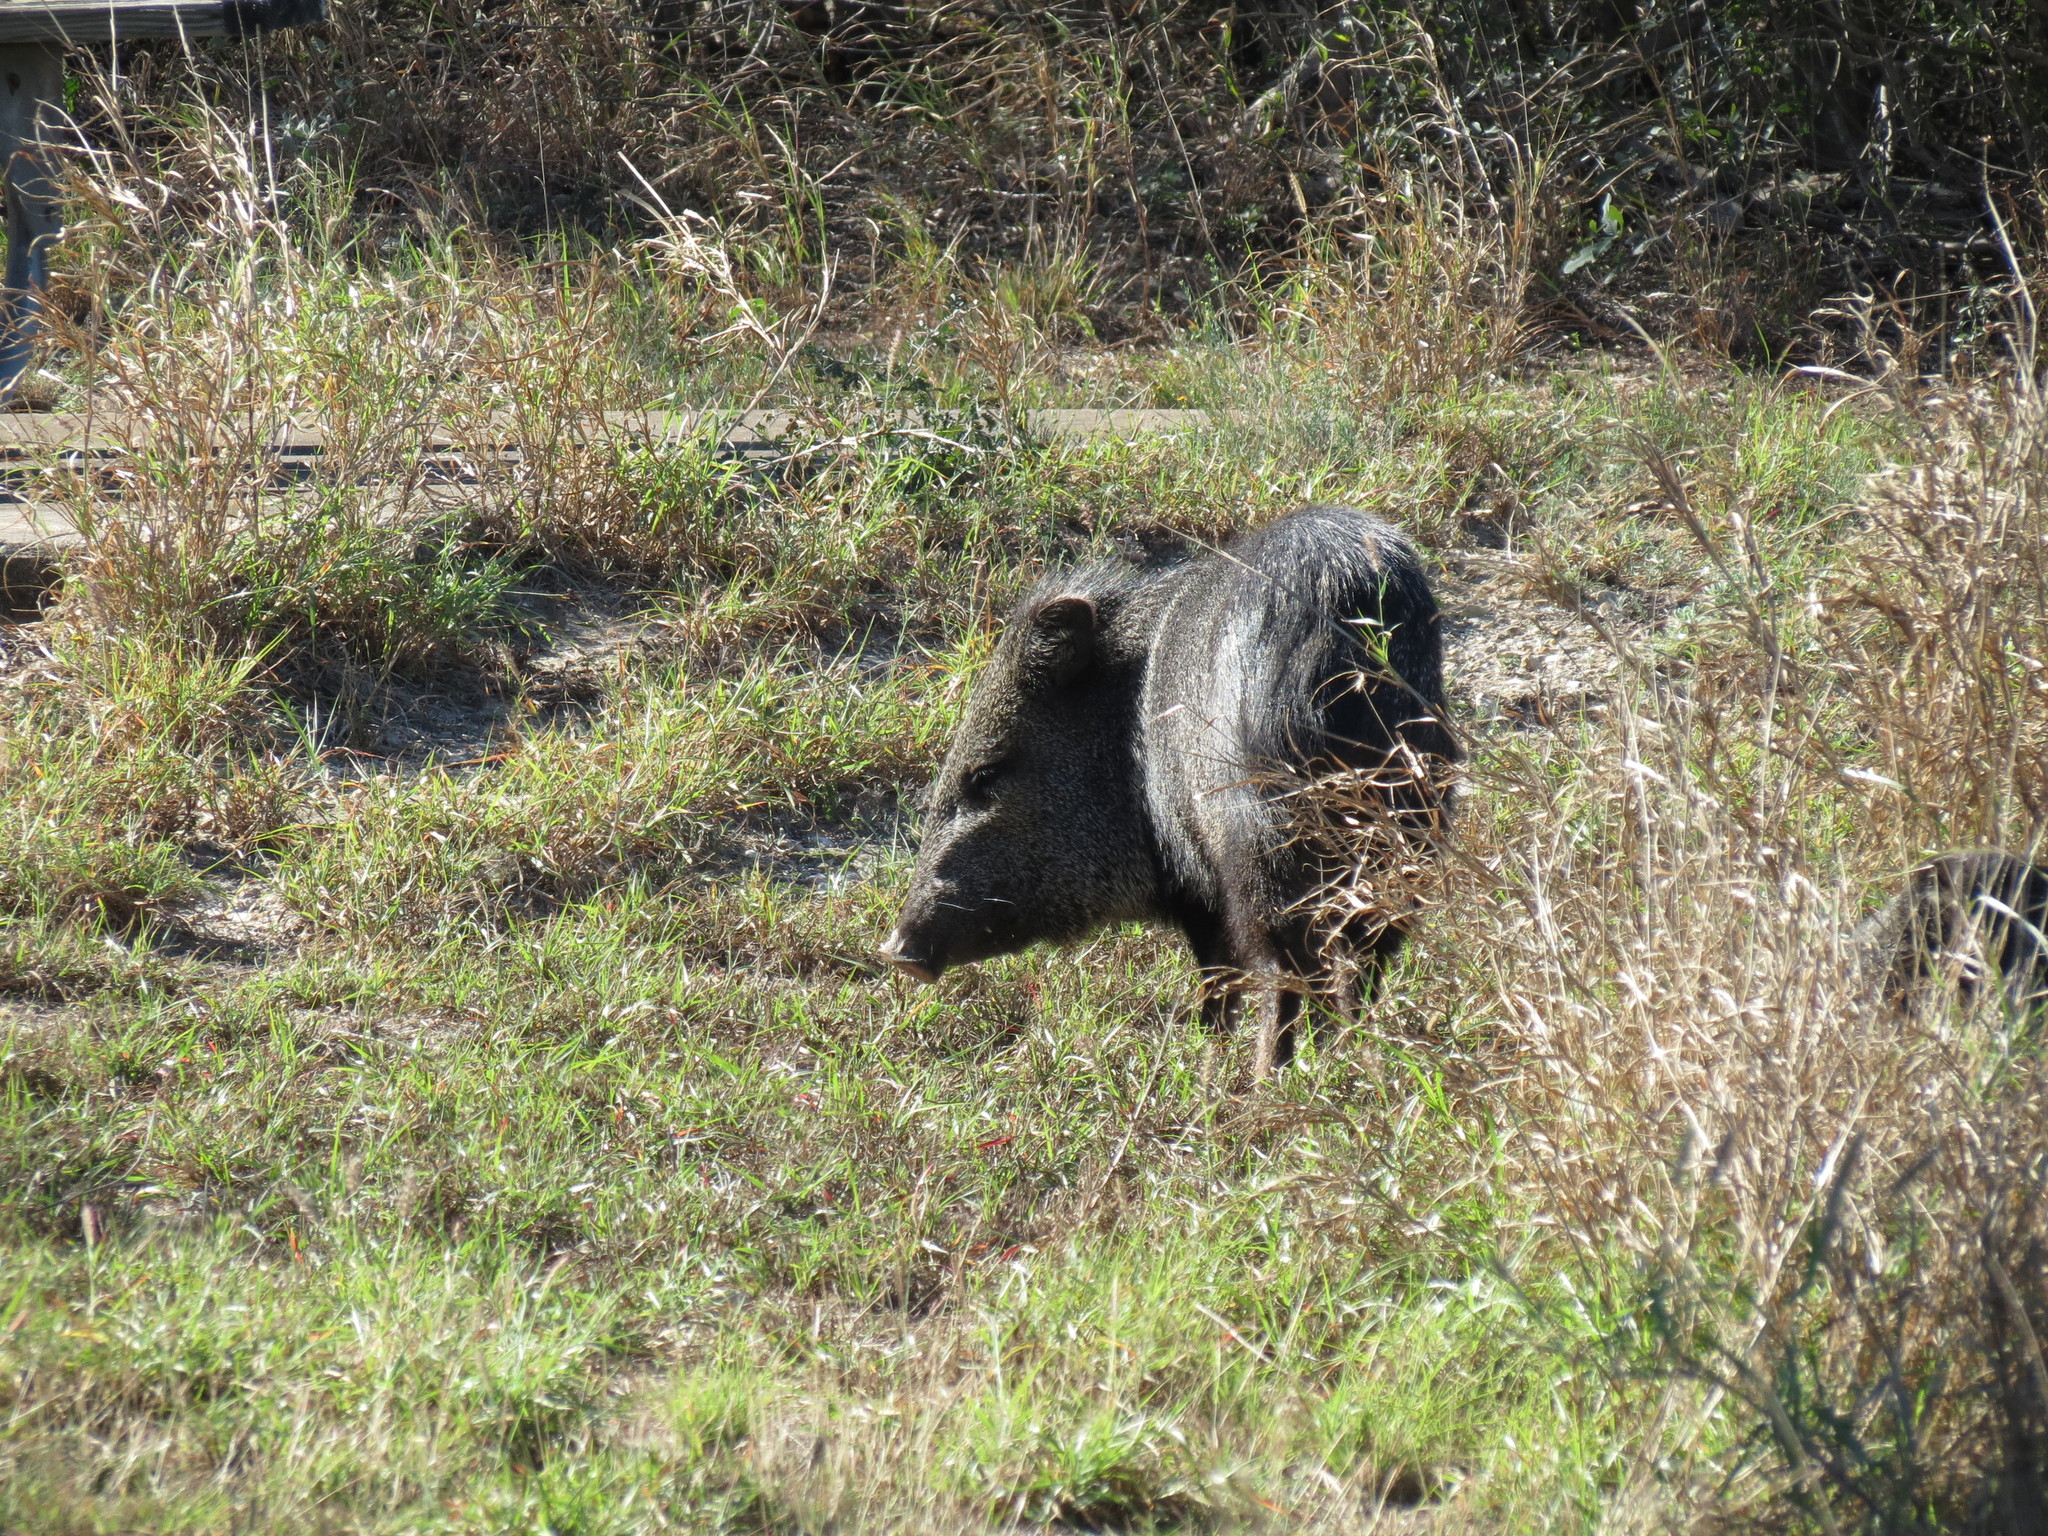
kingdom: Animalia
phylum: Chordata
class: Mammalia
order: Artiodactyla
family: Tayassuidae
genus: Pecari
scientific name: Pecari tajacu
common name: Collared peccary
